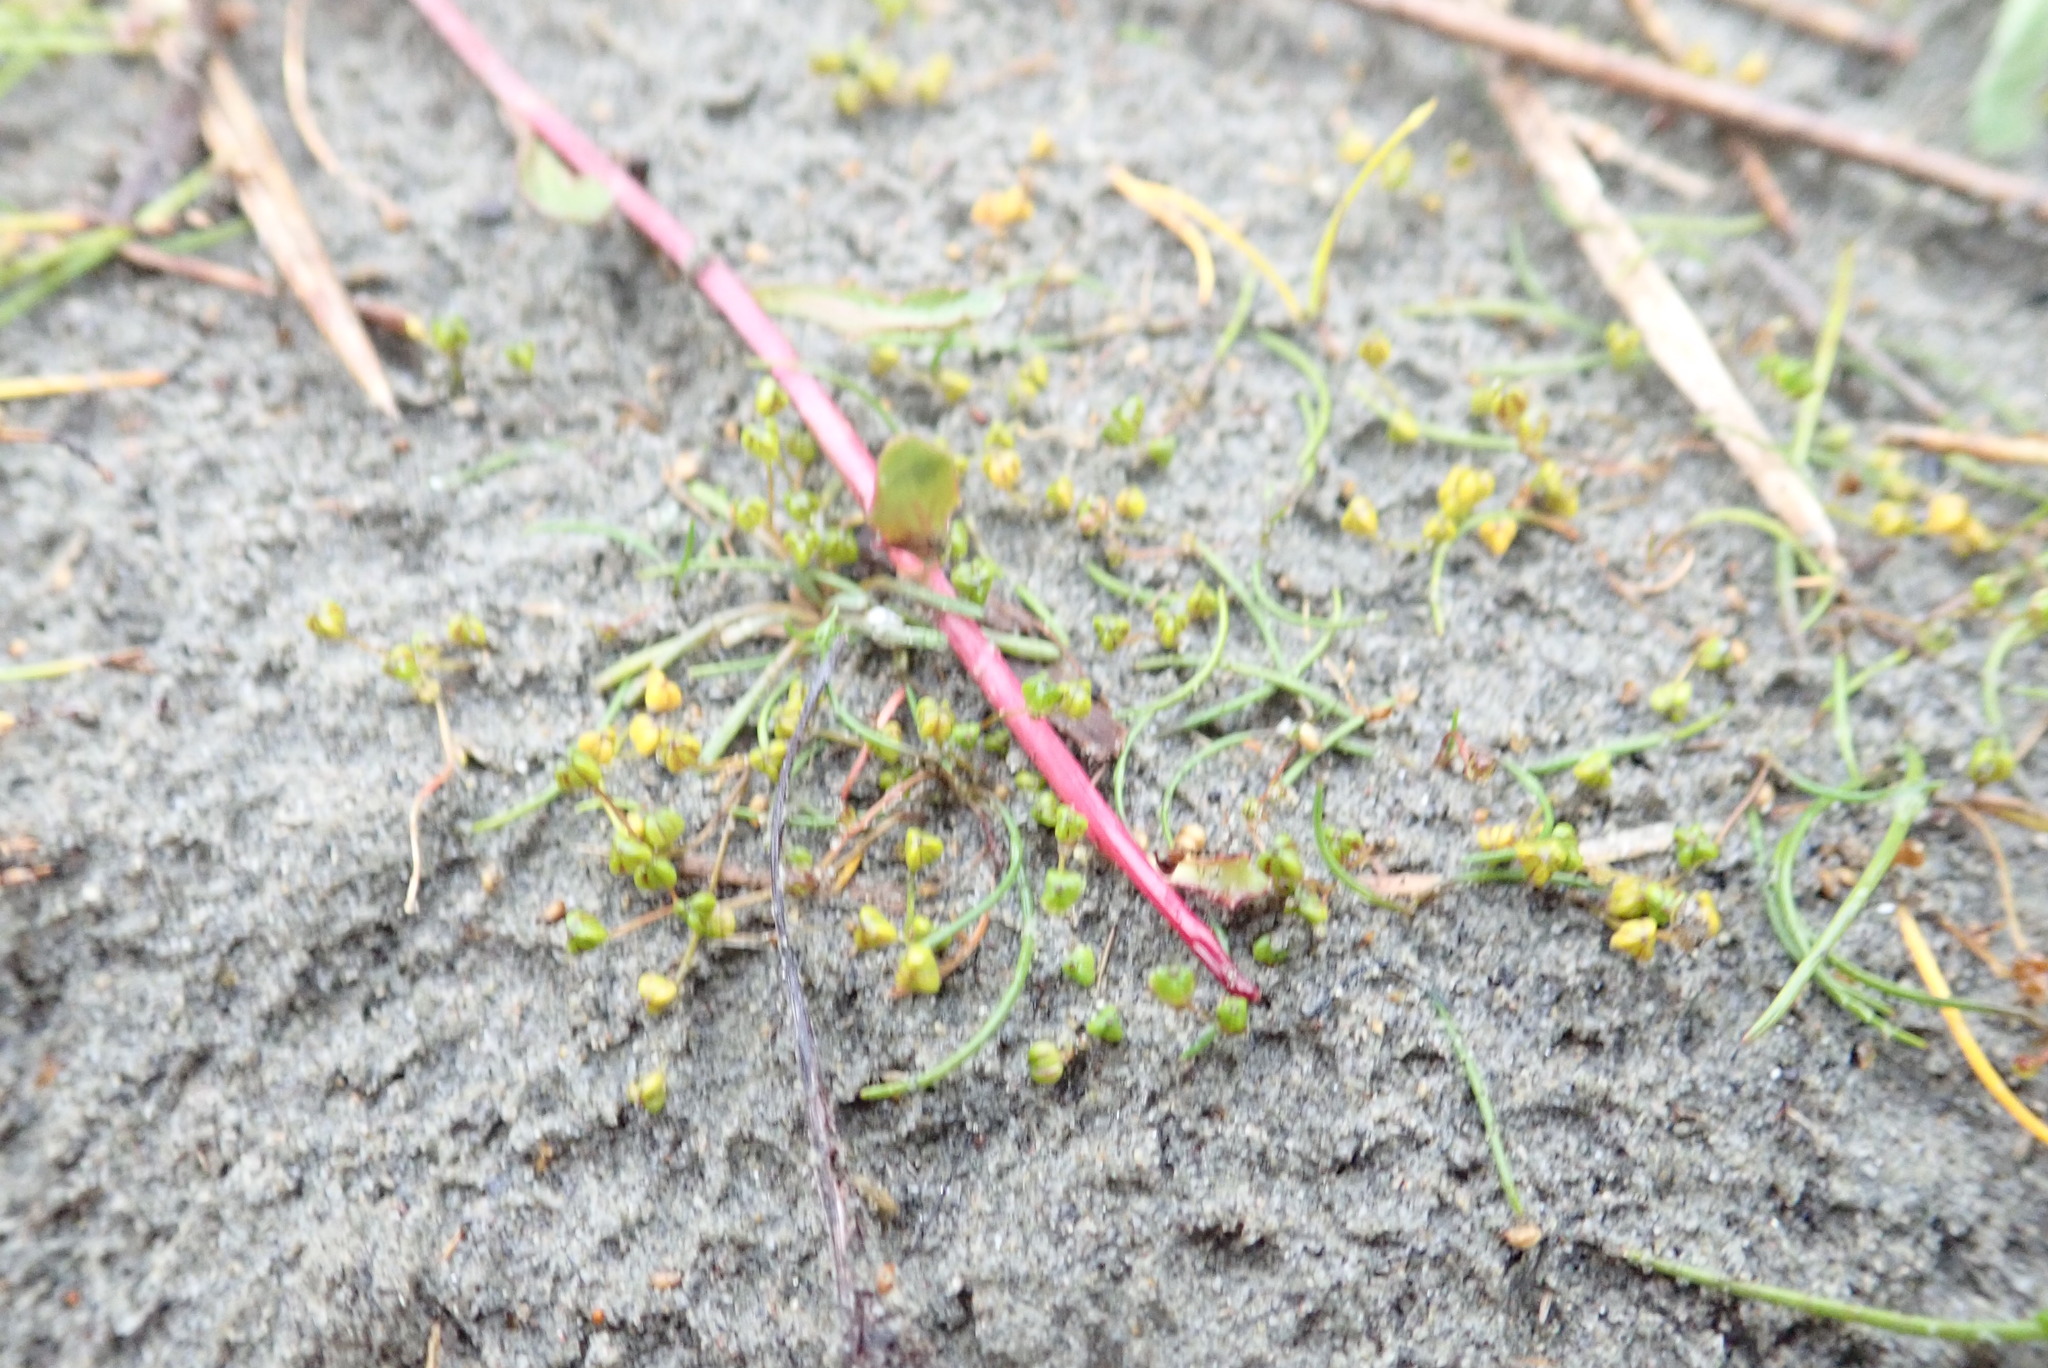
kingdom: Plantae
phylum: Tracheophyta
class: Liliopsida
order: Alismatales
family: Juncaginaceae
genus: Triglochin
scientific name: Triglochin striata
